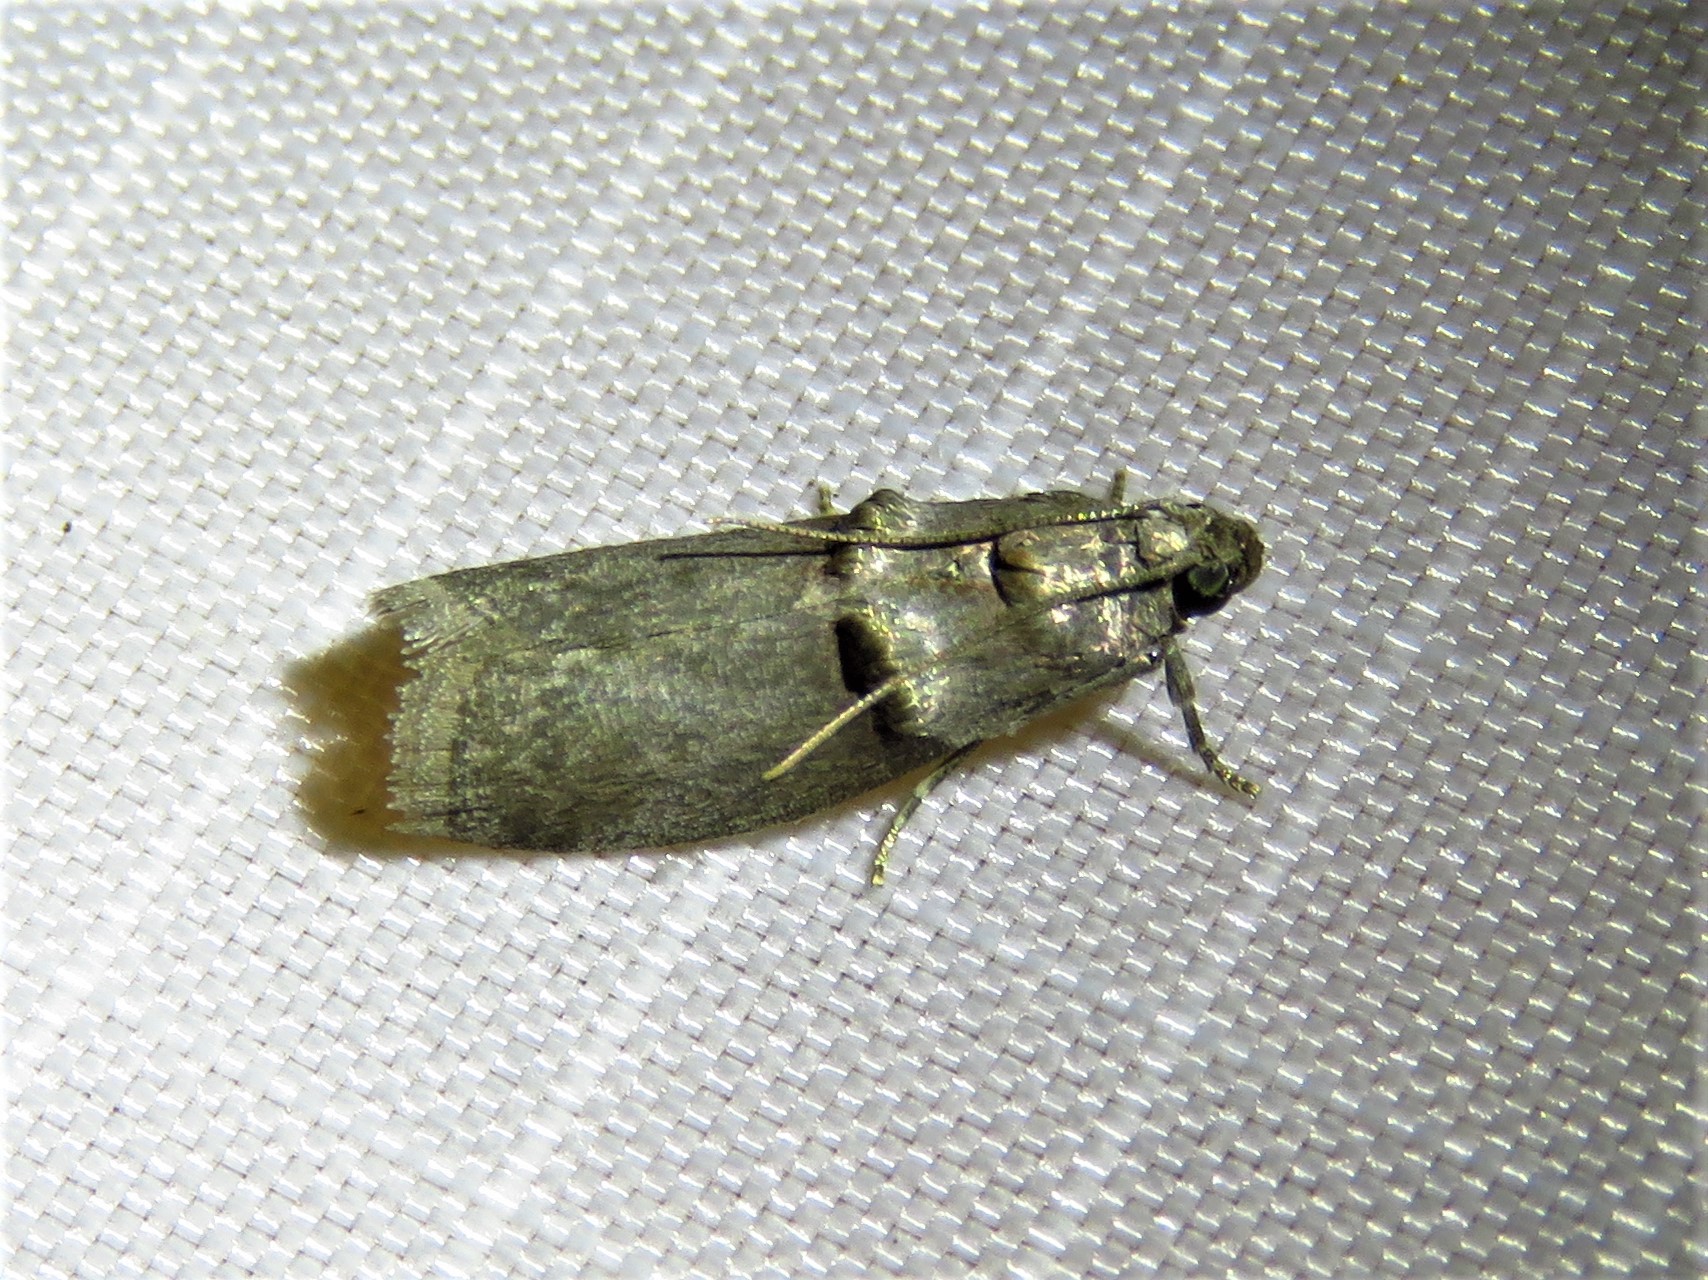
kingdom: Animalia
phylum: Arthropoda
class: Insecta
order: Lepidoptera
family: Pyralidae
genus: Acrobasis
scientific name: Acrobasis texana
